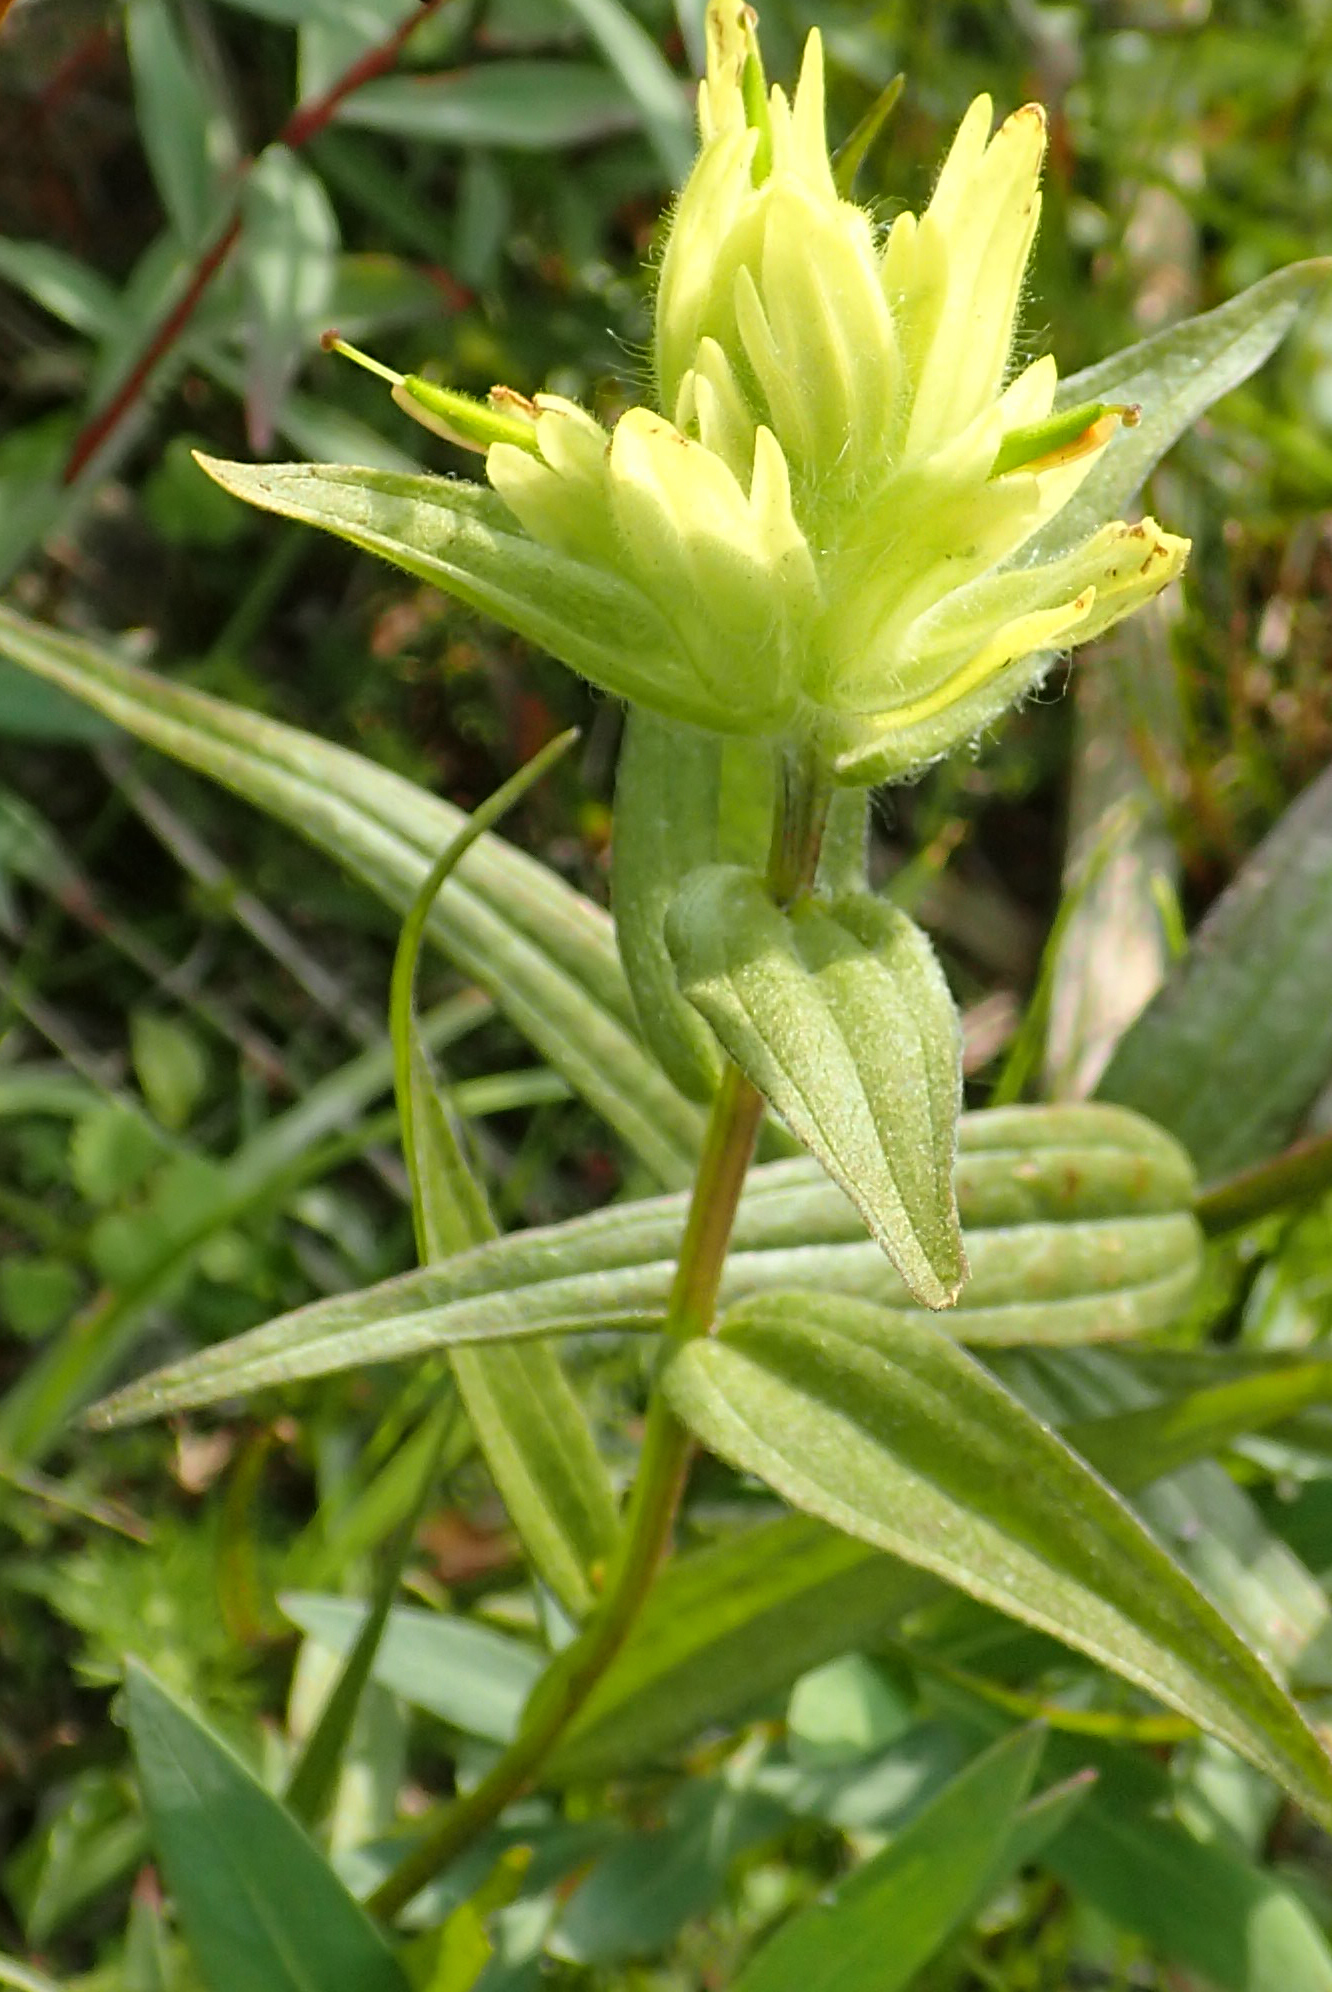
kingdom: Plantae
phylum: Tracheophyta
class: Magnoliopsida
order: Lamiales
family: Orobanchaceae
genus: Castilleja
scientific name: Castilleja unalaschcensis
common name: Unalaska paintbrush
